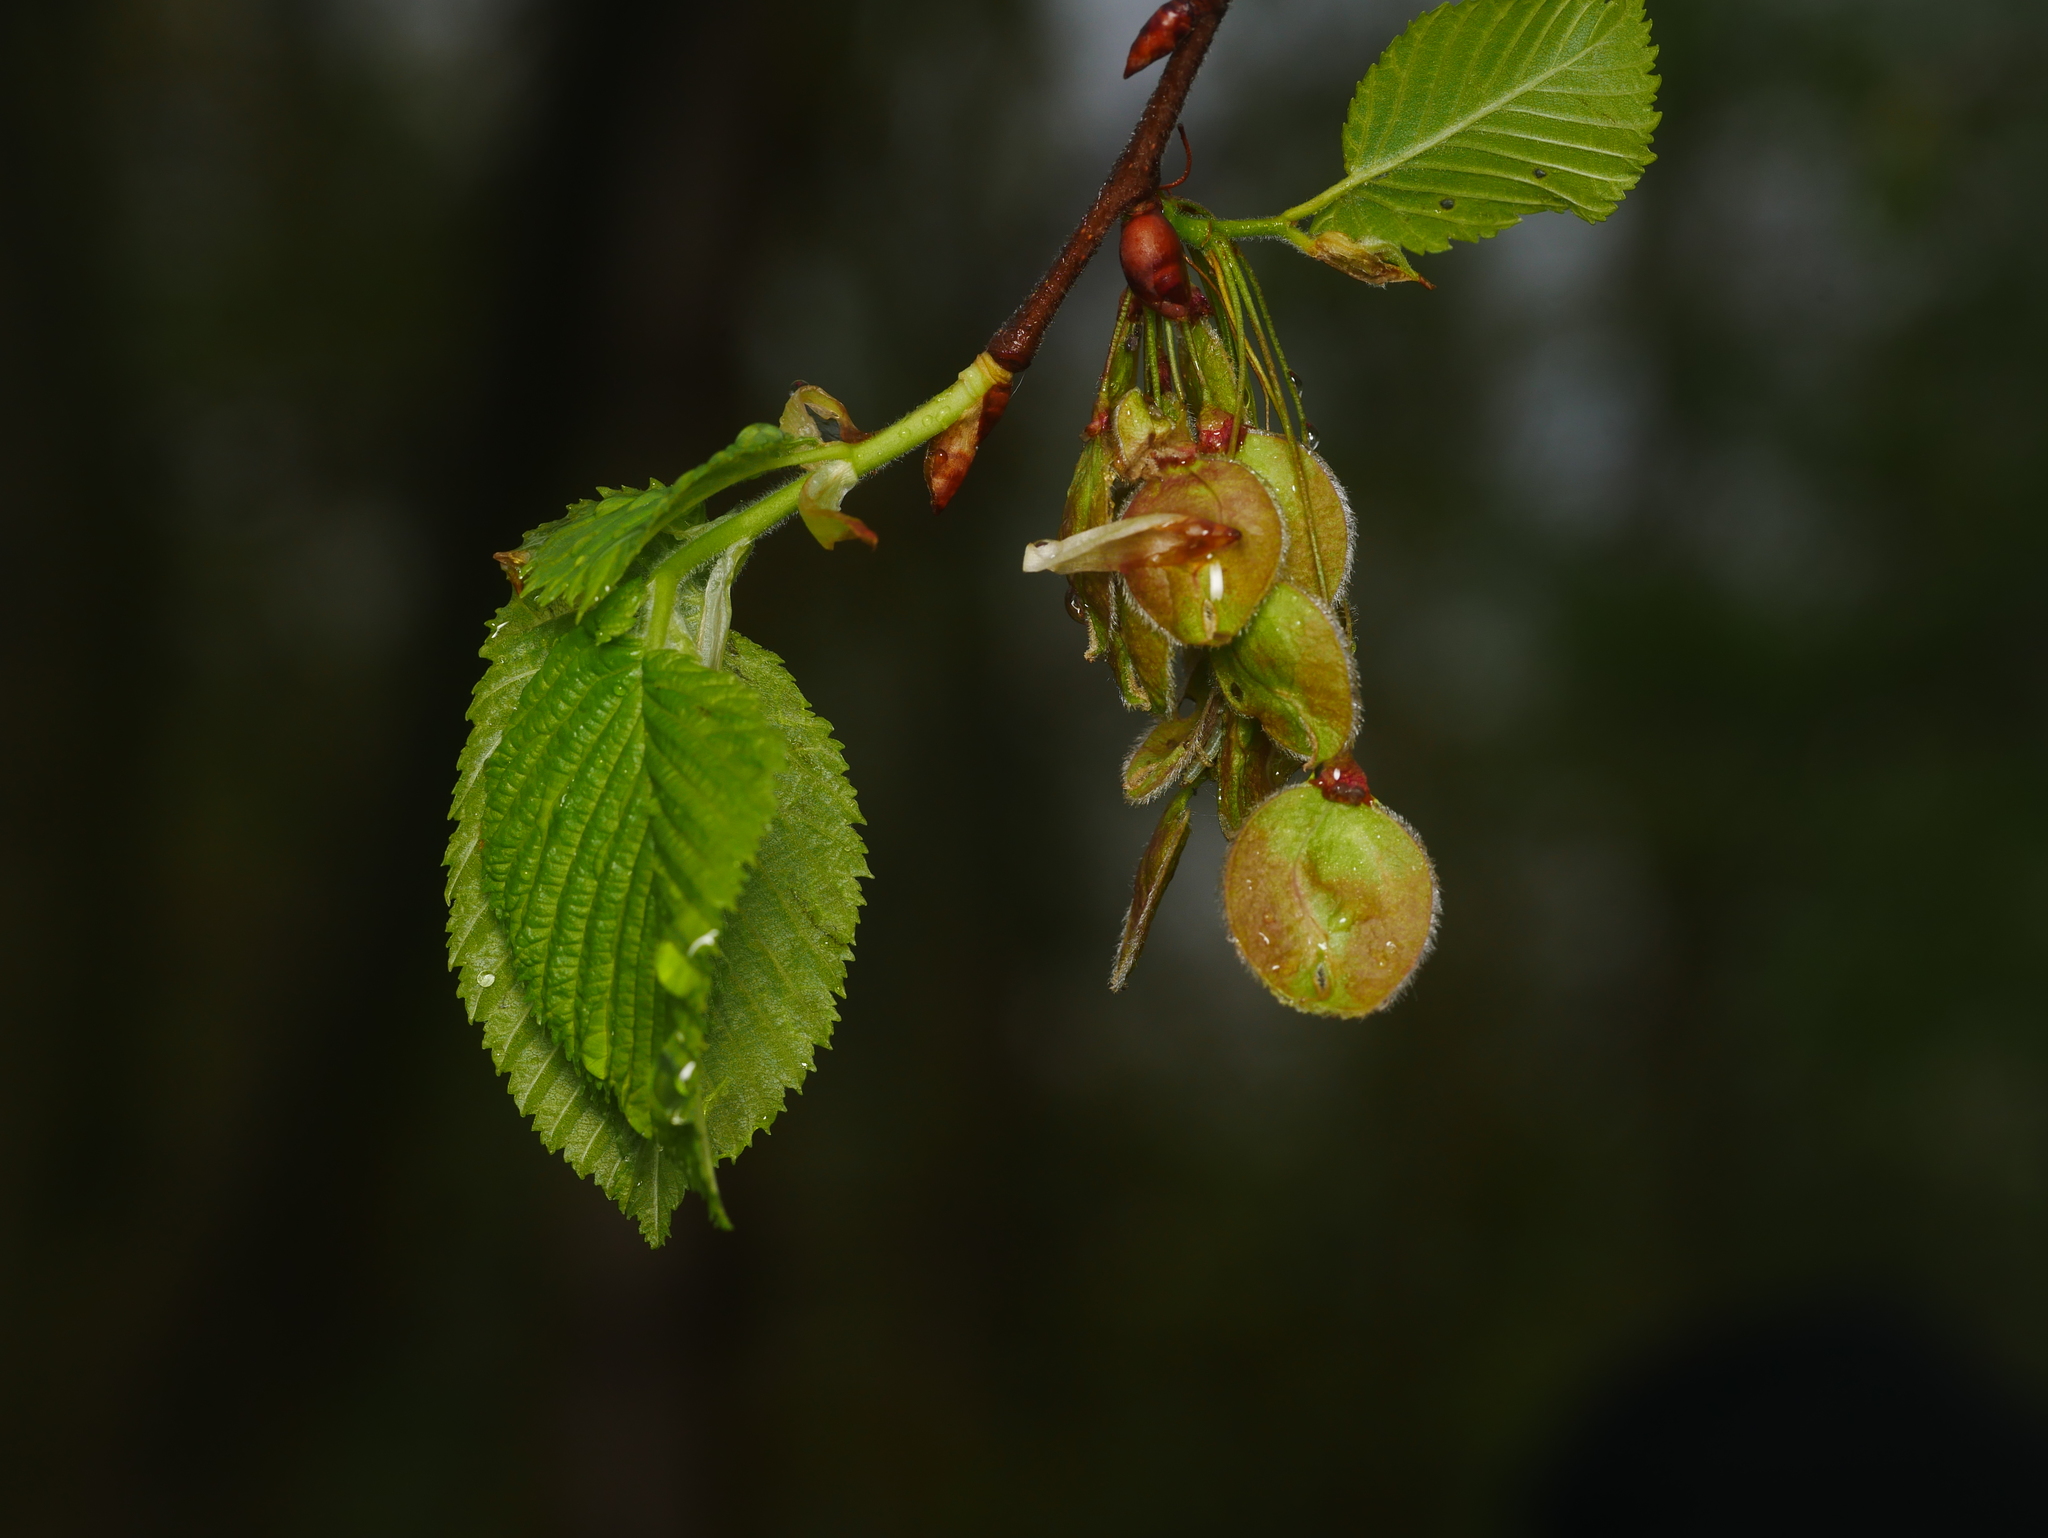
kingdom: Plantae
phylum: Tracheophyta
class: Magnoliopsida
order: Rosales
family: Ulmaceae
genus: Ulmus
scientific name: Ulmus laevis
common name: European white-elm
